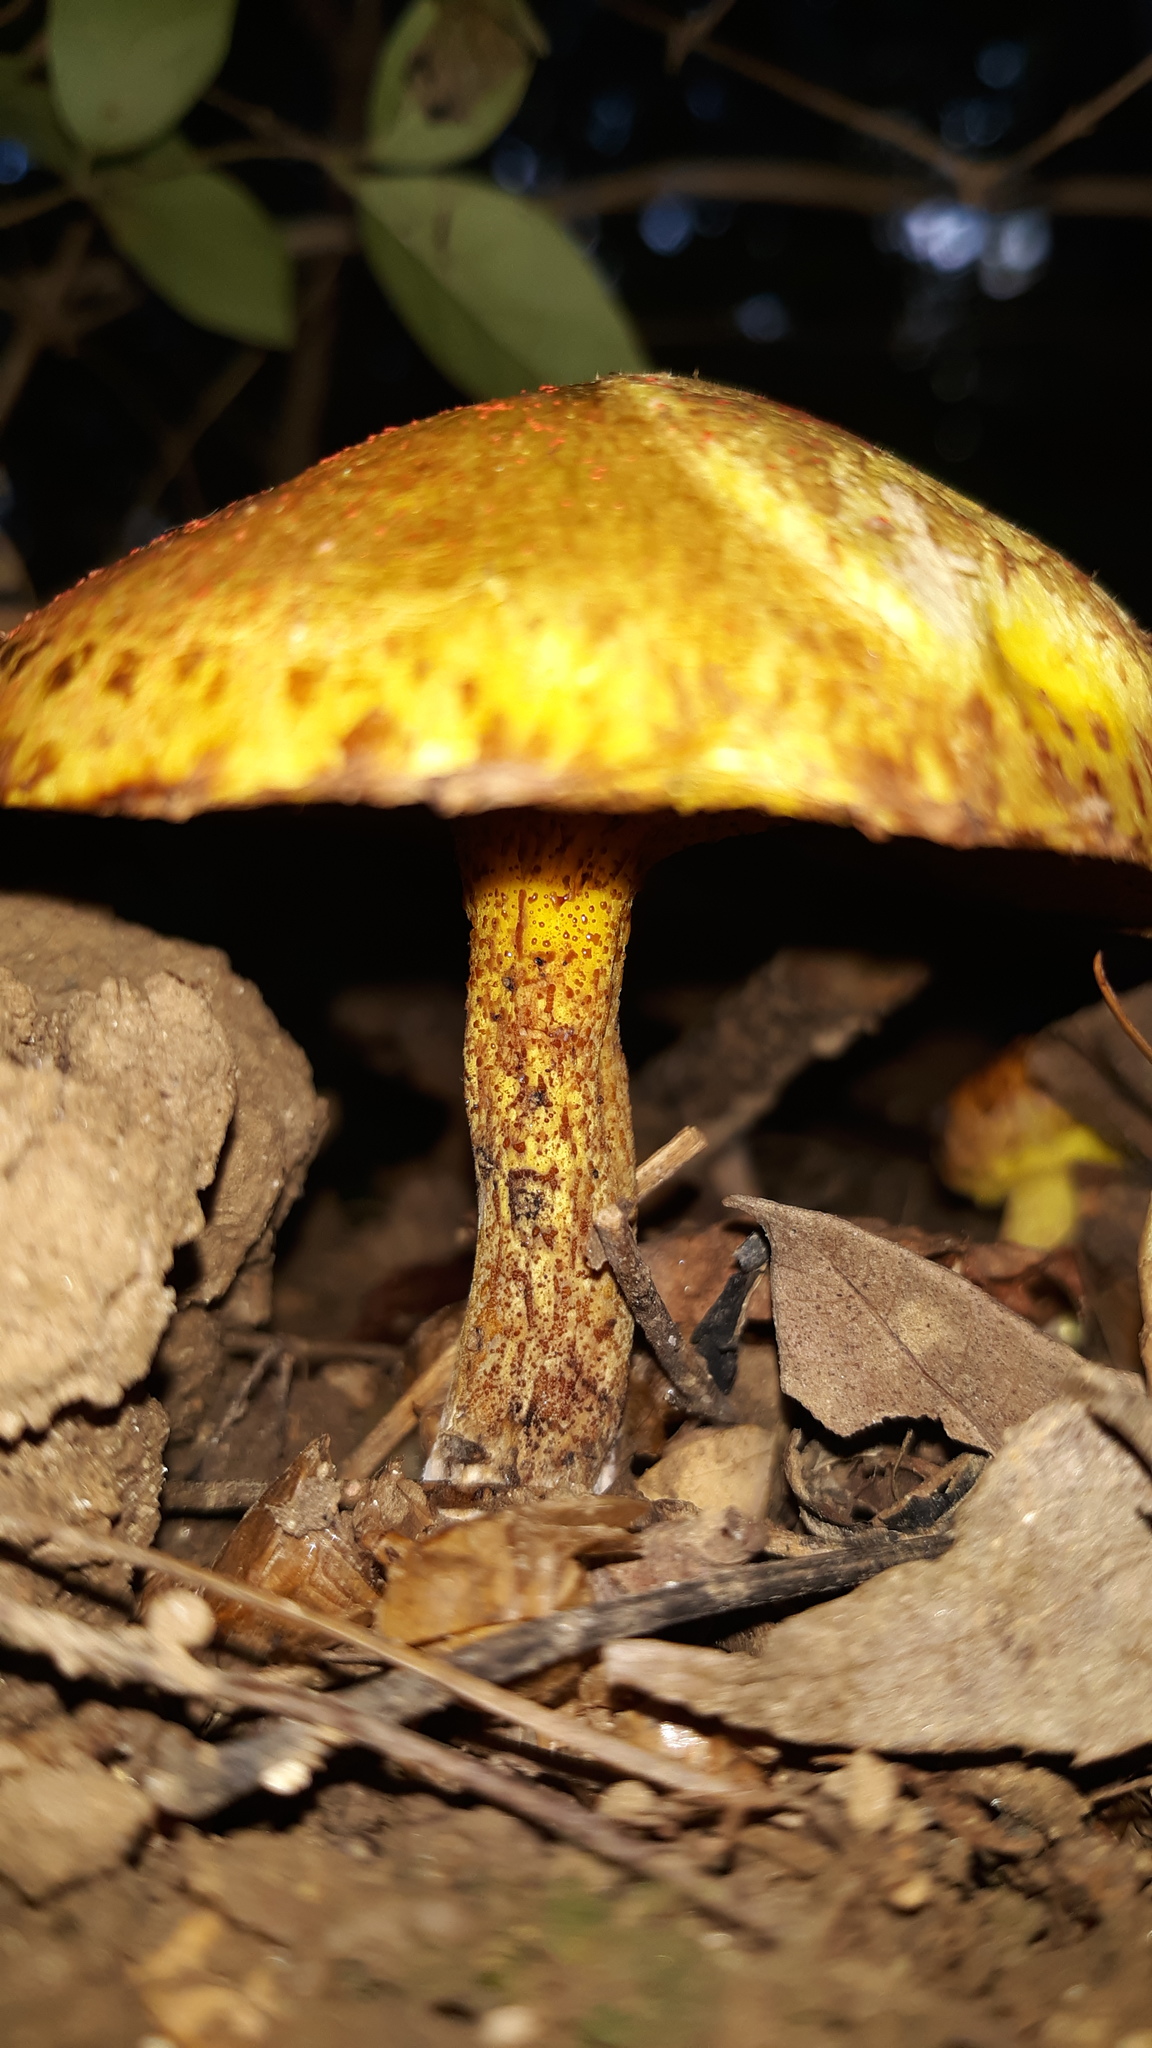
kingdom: Fungi
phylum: Basidiomycota
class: Agaricomycetes
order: Boletales
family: Suillaceae
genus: Suillus
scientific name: Suillus americanus
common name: Chicken fat mushroom
